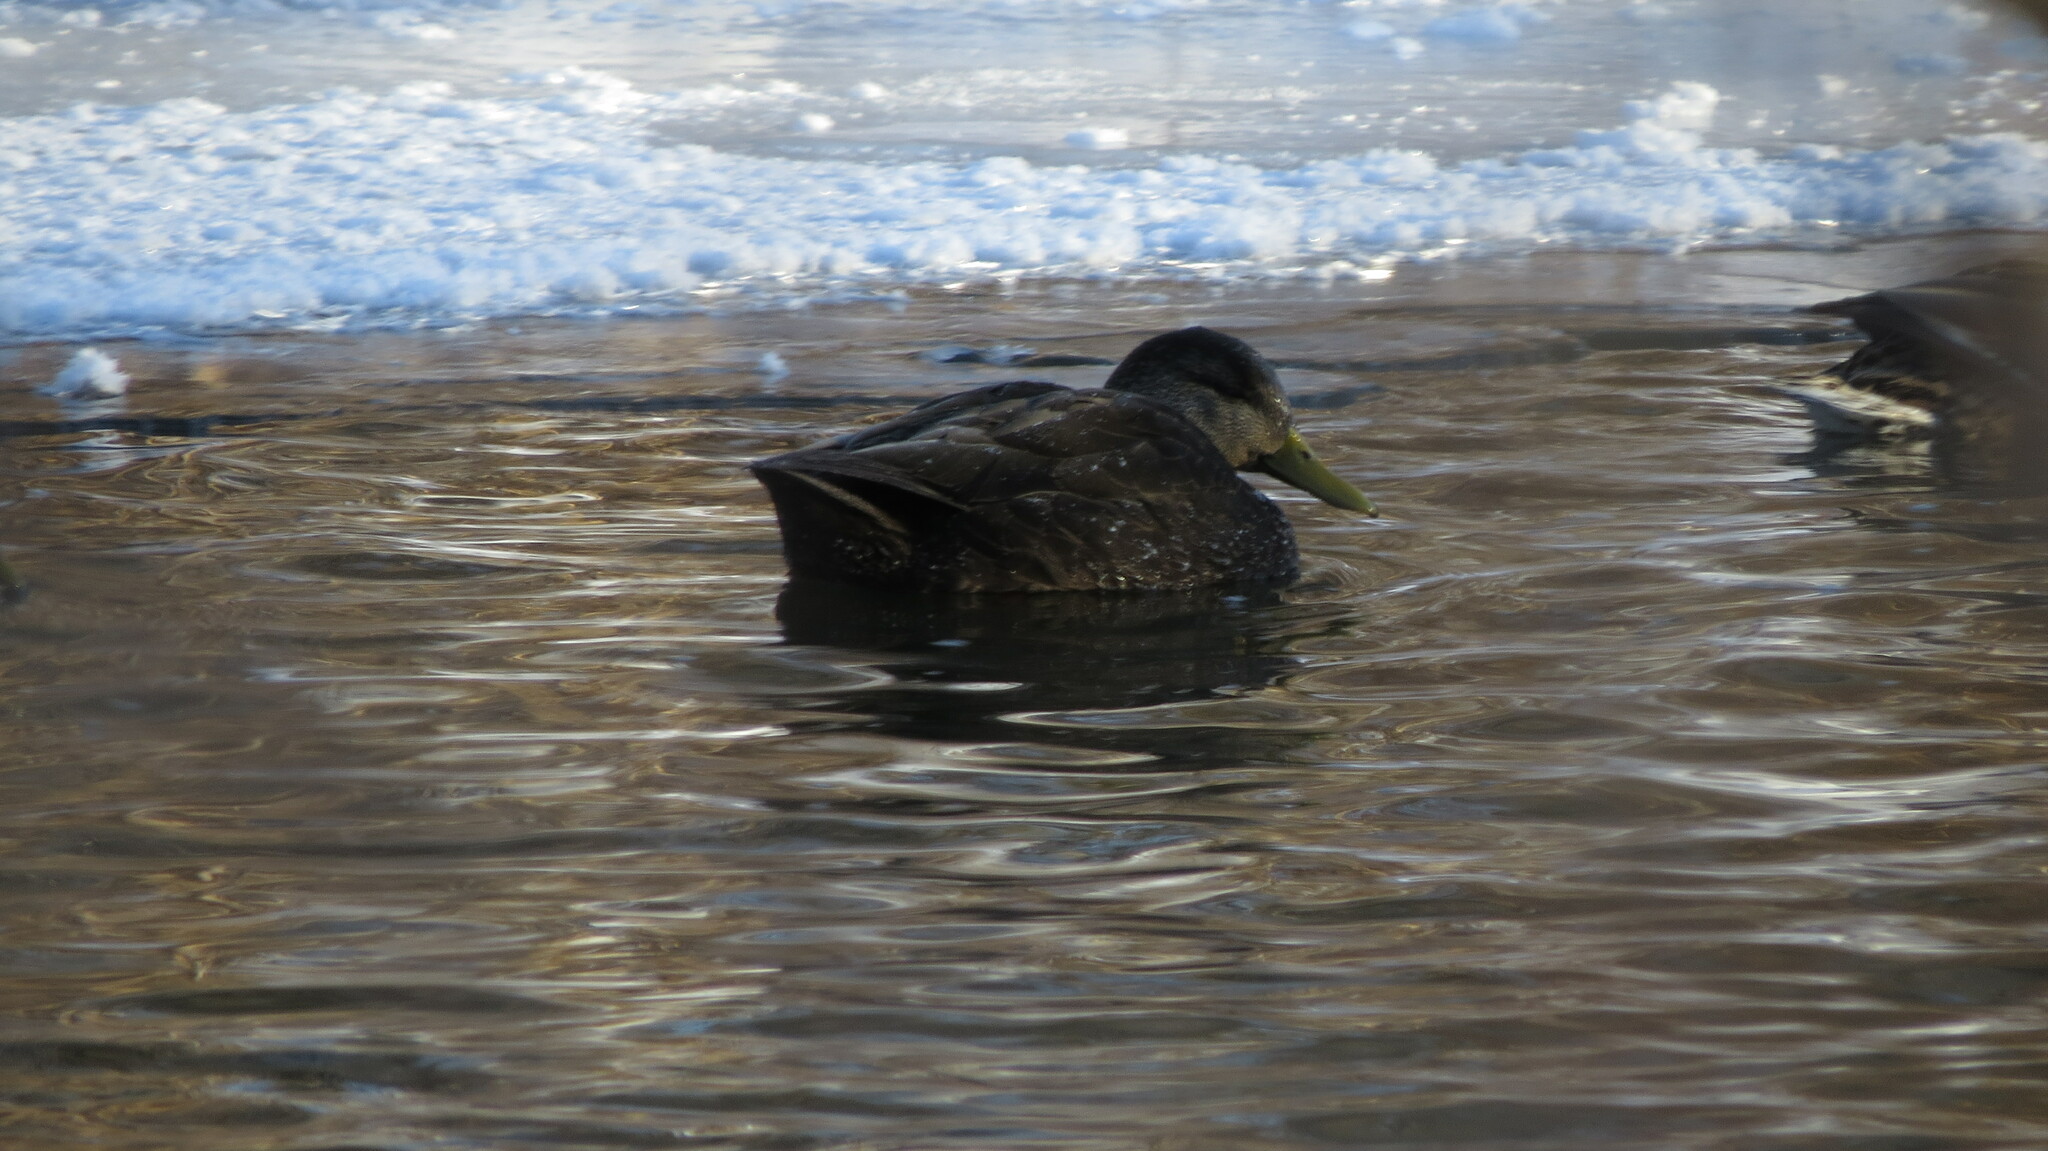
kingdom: Animalia
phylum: Chordata
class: Aves
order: Anseriformes
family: Anatidae
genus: Anas
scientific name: Anas rubripes
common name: American black duck
